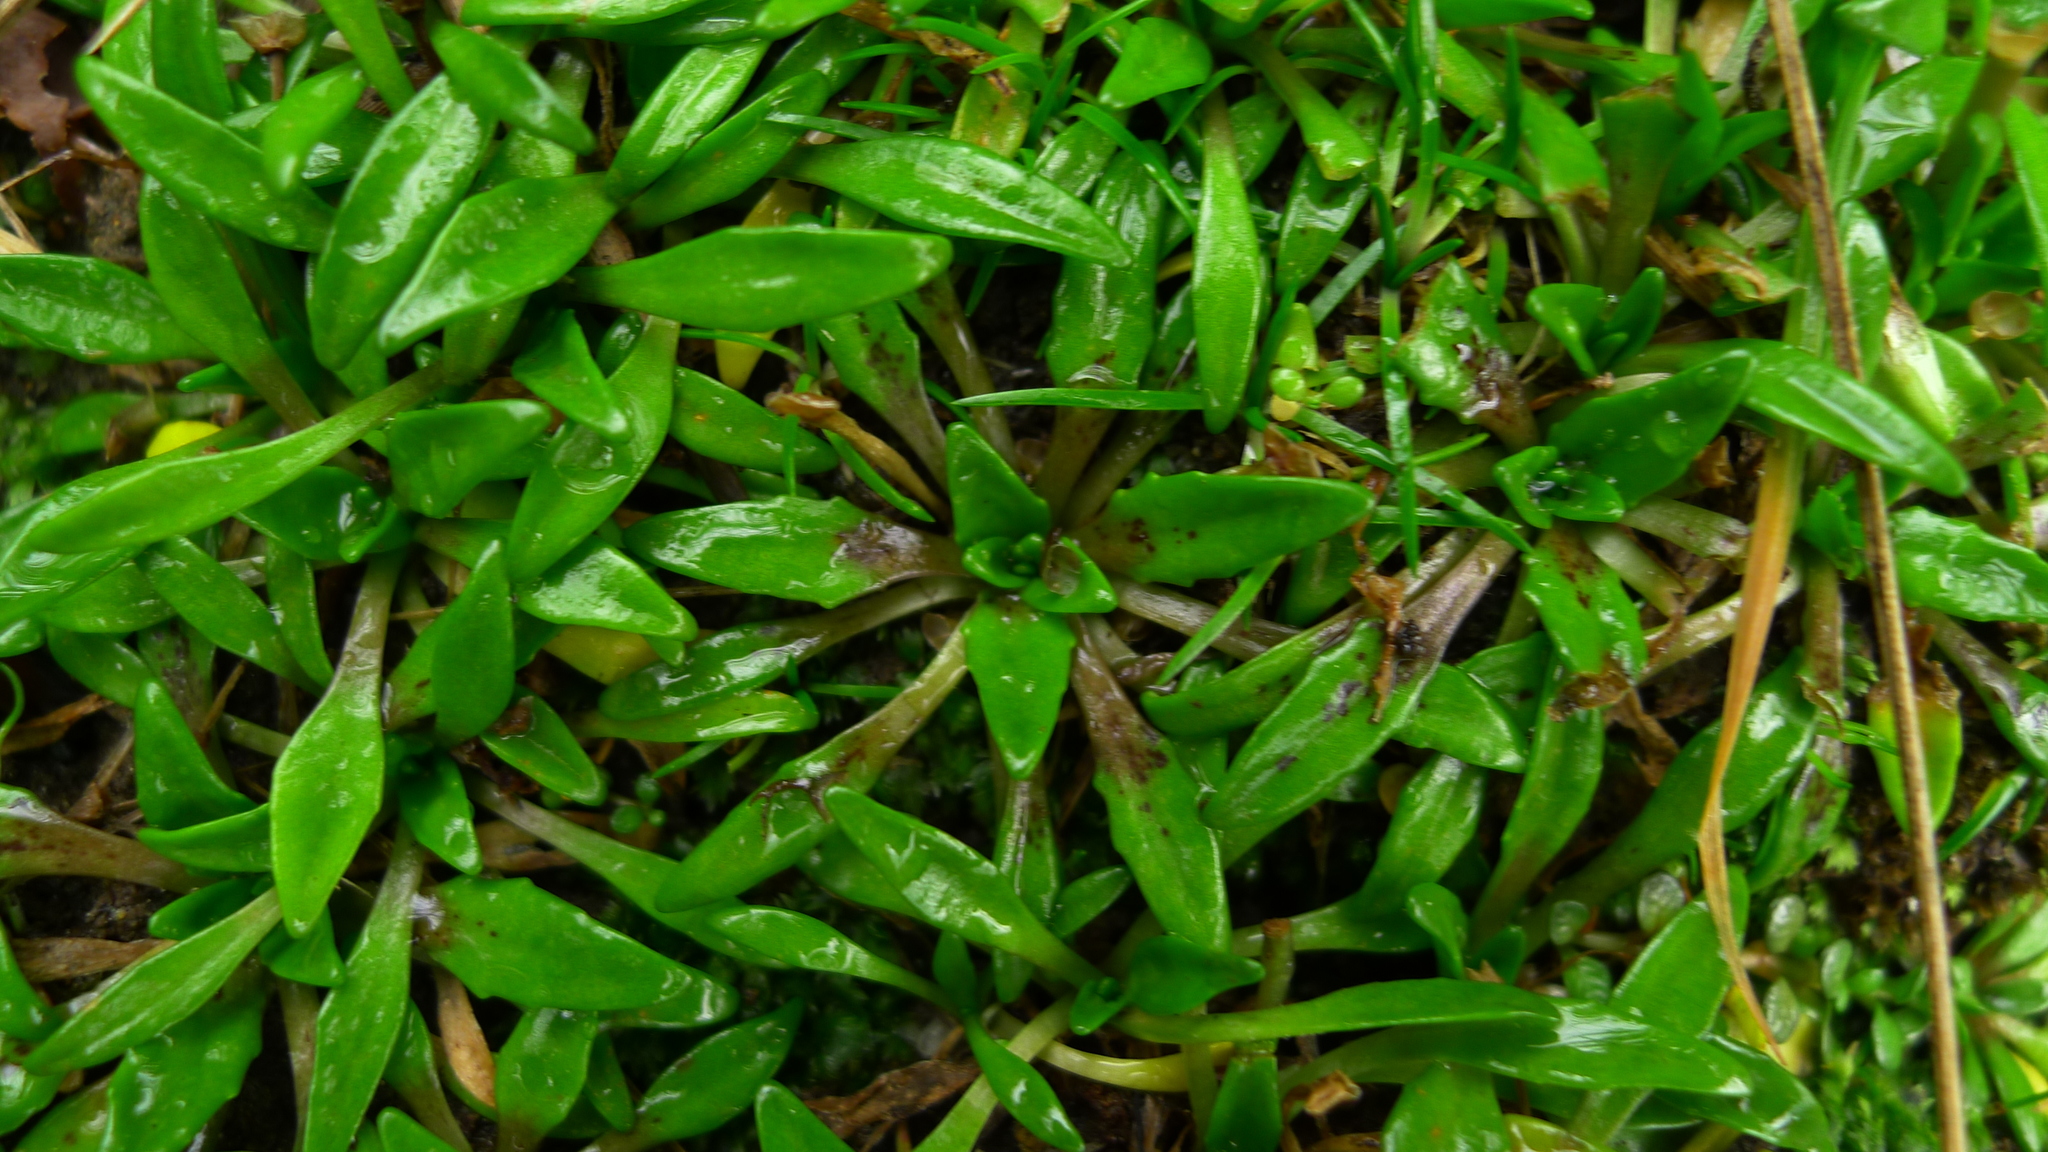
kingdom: Plantae
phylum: Tracheophyta
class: Magnoliopsida
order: Lamiales
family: Plantaginaceae
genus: Plantago
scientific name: Plantago unibracteata
